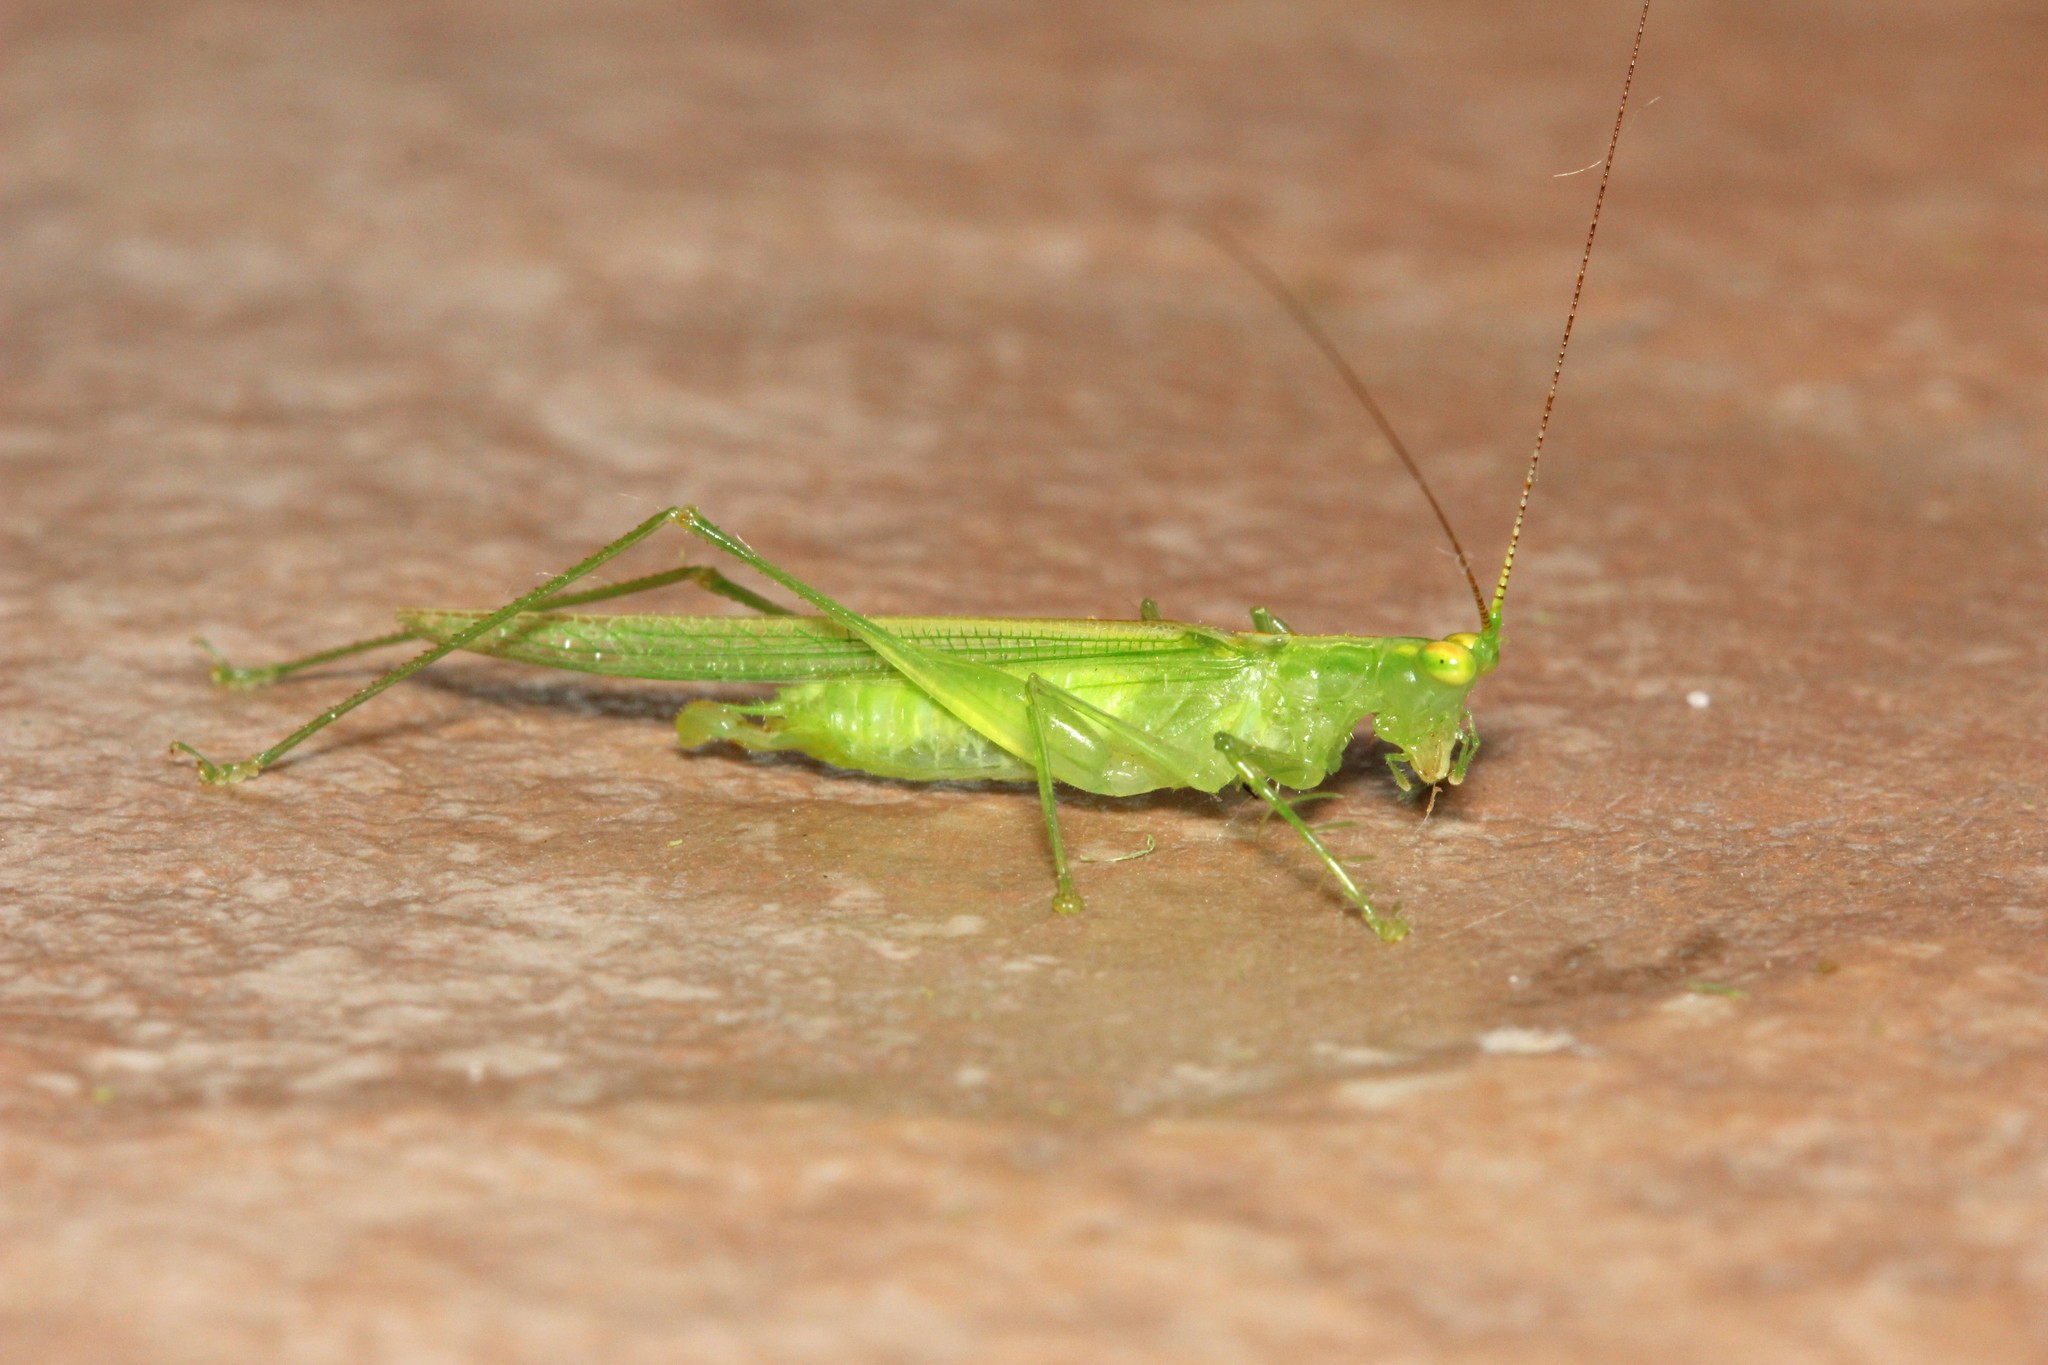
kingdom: Animalia
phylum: Arthropoda
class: Insecta
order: Orthoptera
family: Tettigoniidae
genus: Phlugis
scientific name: Phlugis ocraceovittata
